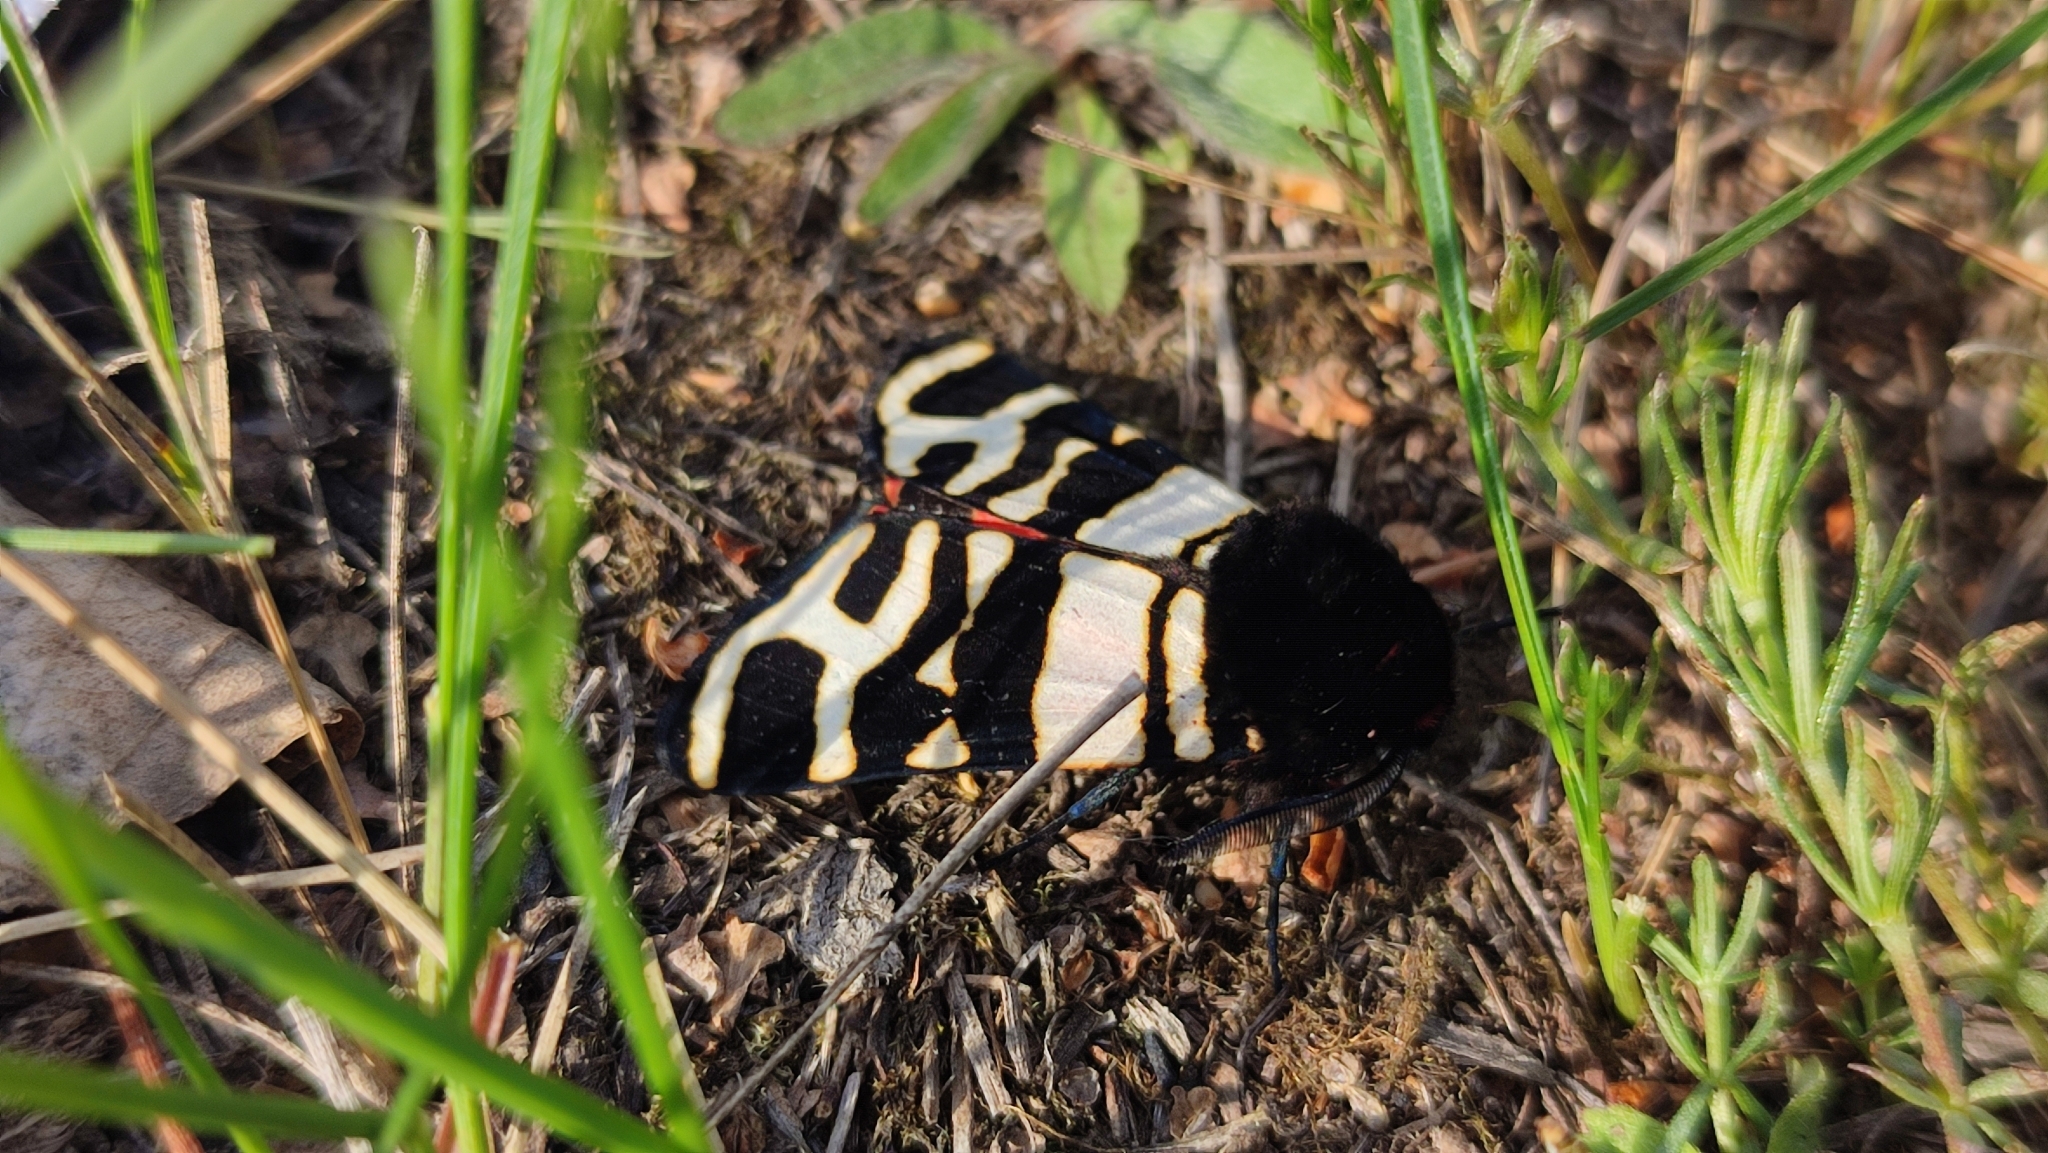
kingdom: Animalia
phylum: Arthropoda
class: Insecta
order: Lepidoptera
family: Erebidae
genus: Eucharia
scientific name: Eucharia festiva
